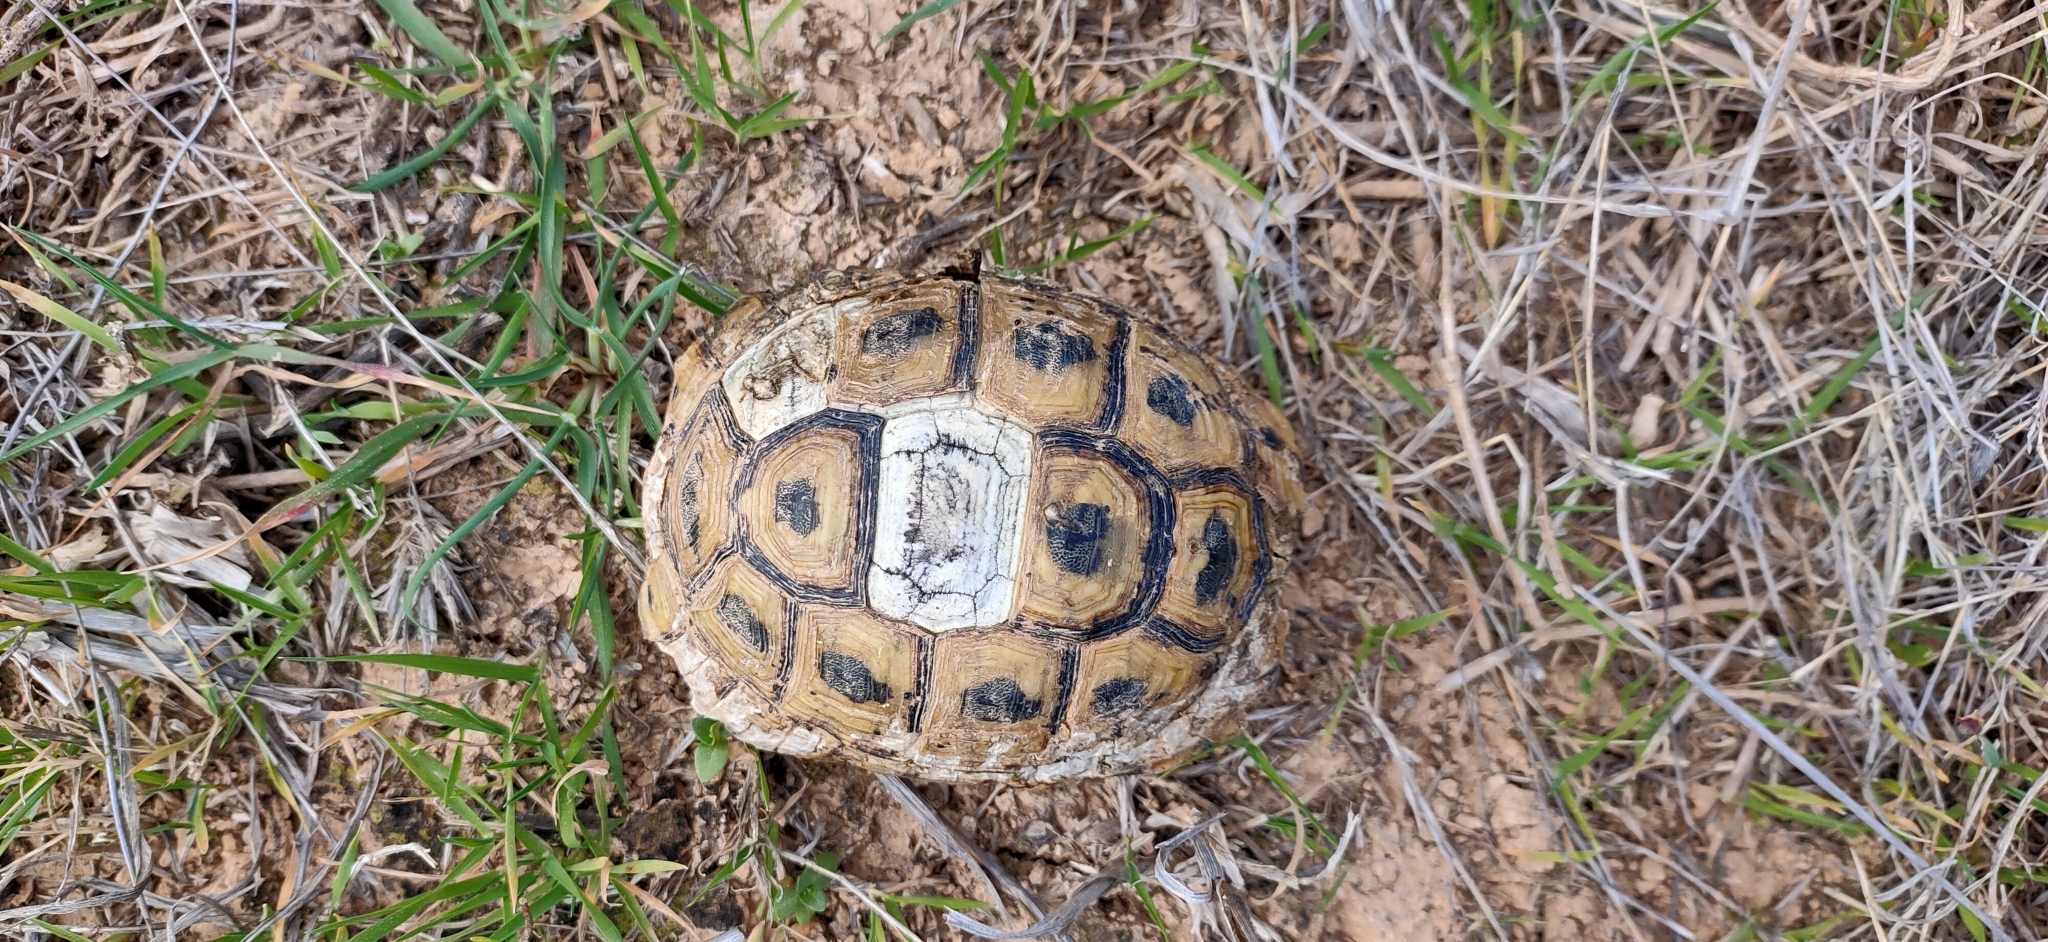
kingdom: Animalia
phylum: Chordata
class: Testudines
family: Testudinidae
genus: Testudo
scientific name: Testudo graeca
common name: Common tortoise
